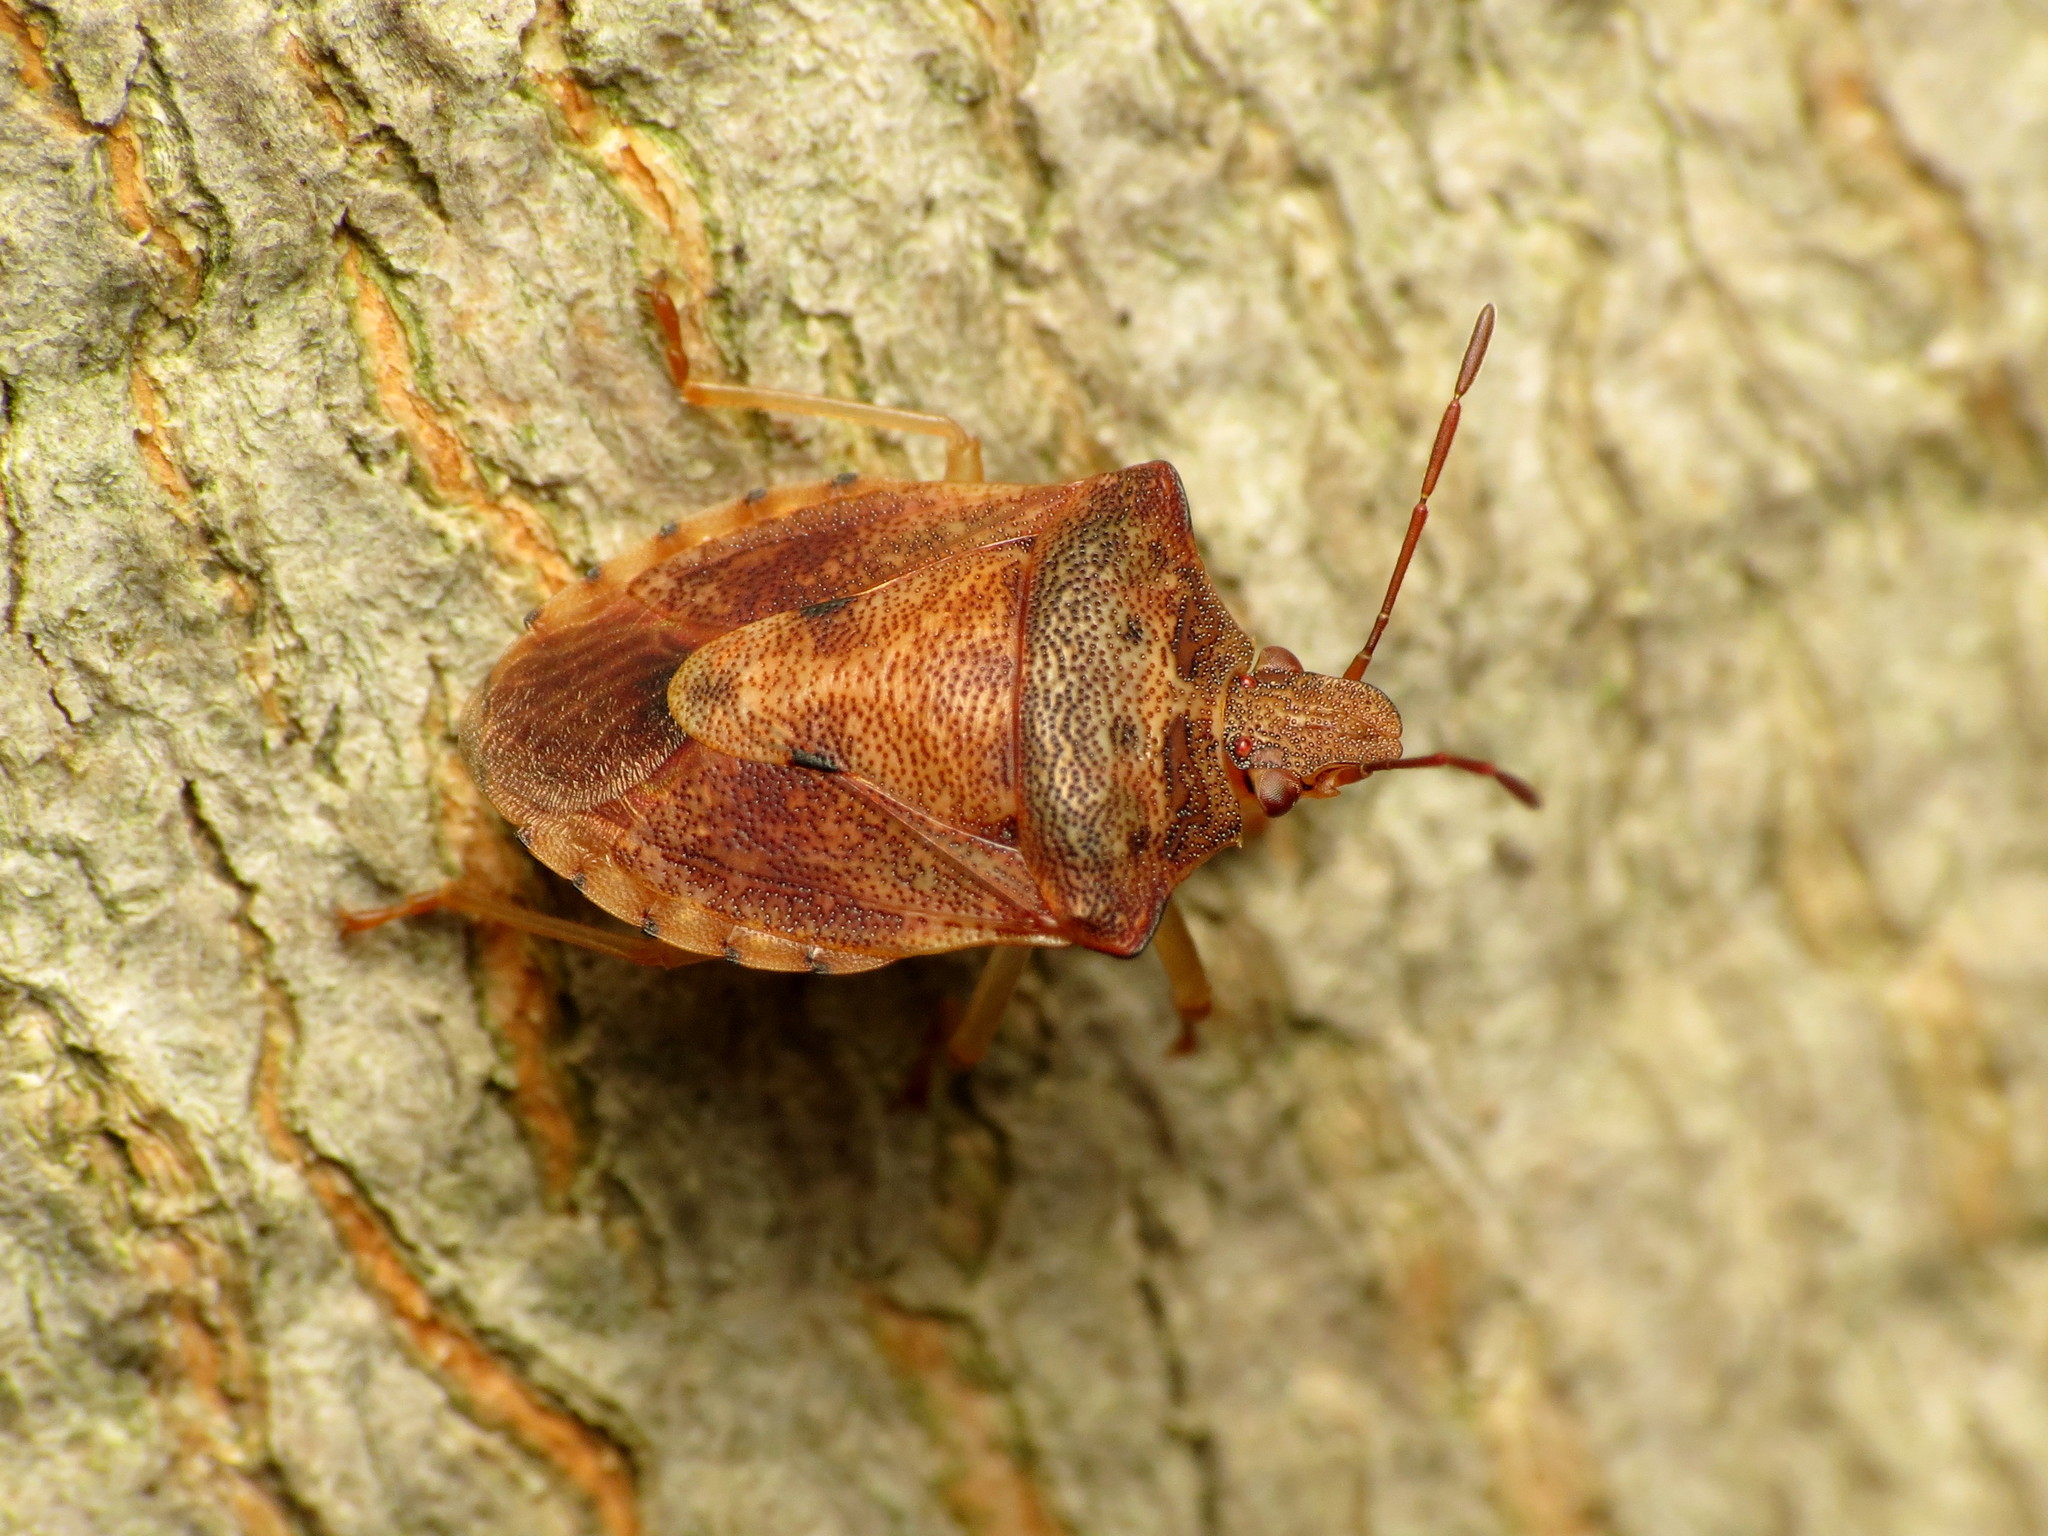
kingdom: Animalia
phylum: Arthropoda
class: Insecta
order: Hemiptera
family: Pentatomidae
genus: Dendrocoris
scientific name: Dendrocoris humeralis
